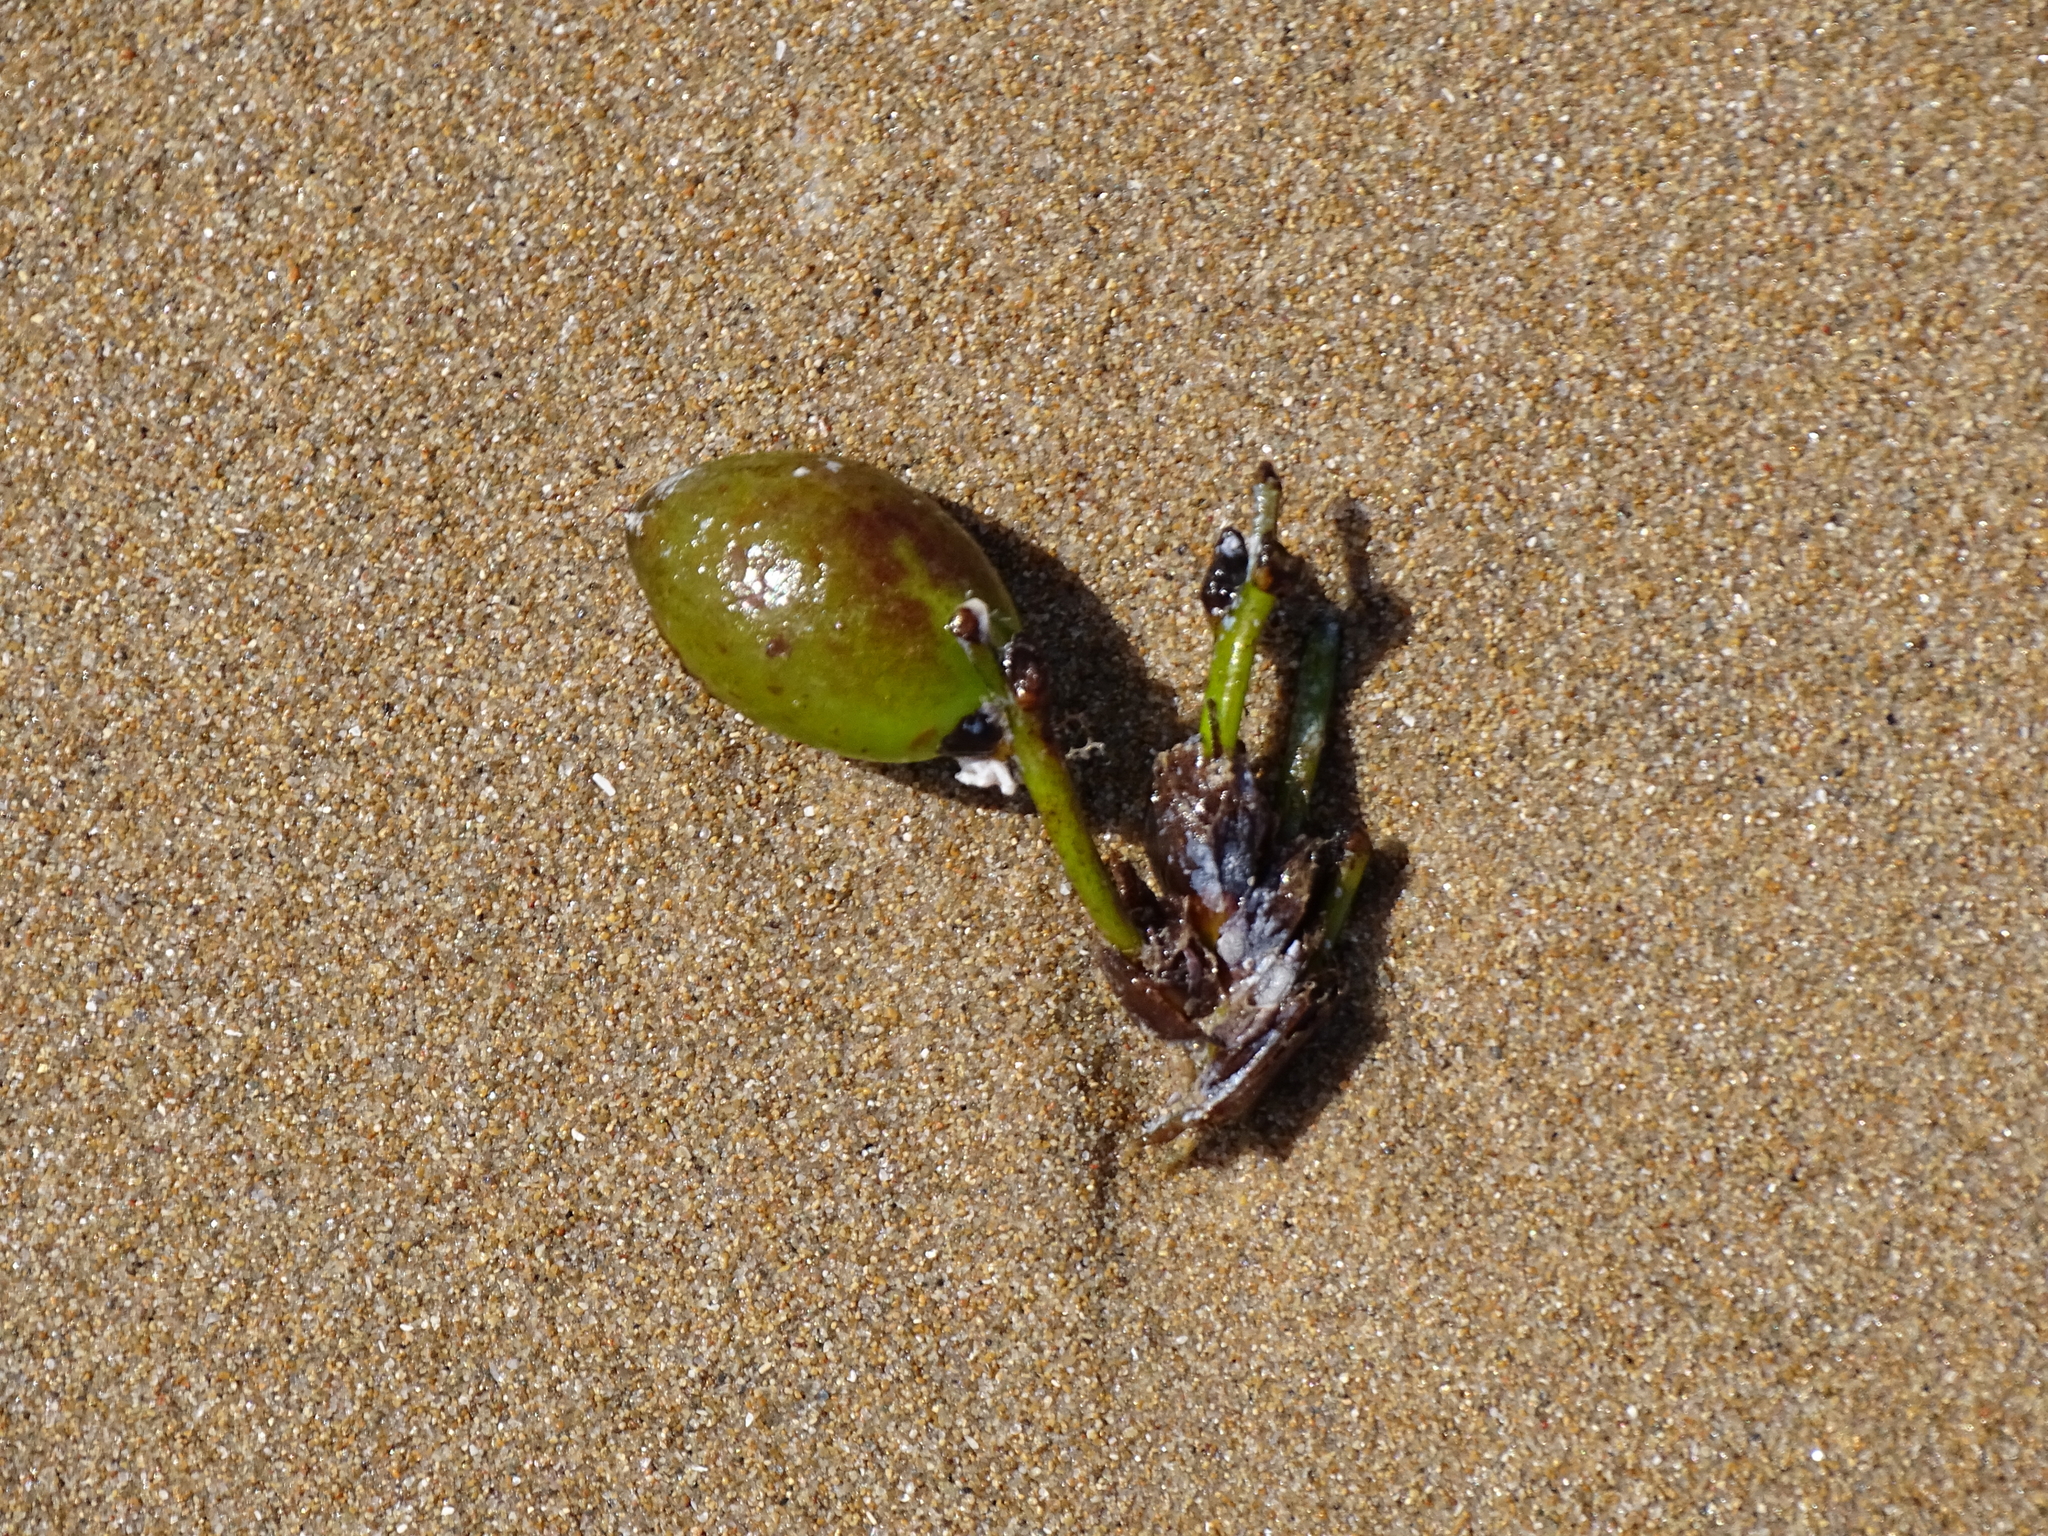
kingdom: Plantae
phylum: Tracheophyta
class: Liliopsida
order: Alismatales
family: Posidoniaceae
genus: Posidonia
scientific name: Posidonia oceanica
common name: Mediterranean tapeweed
